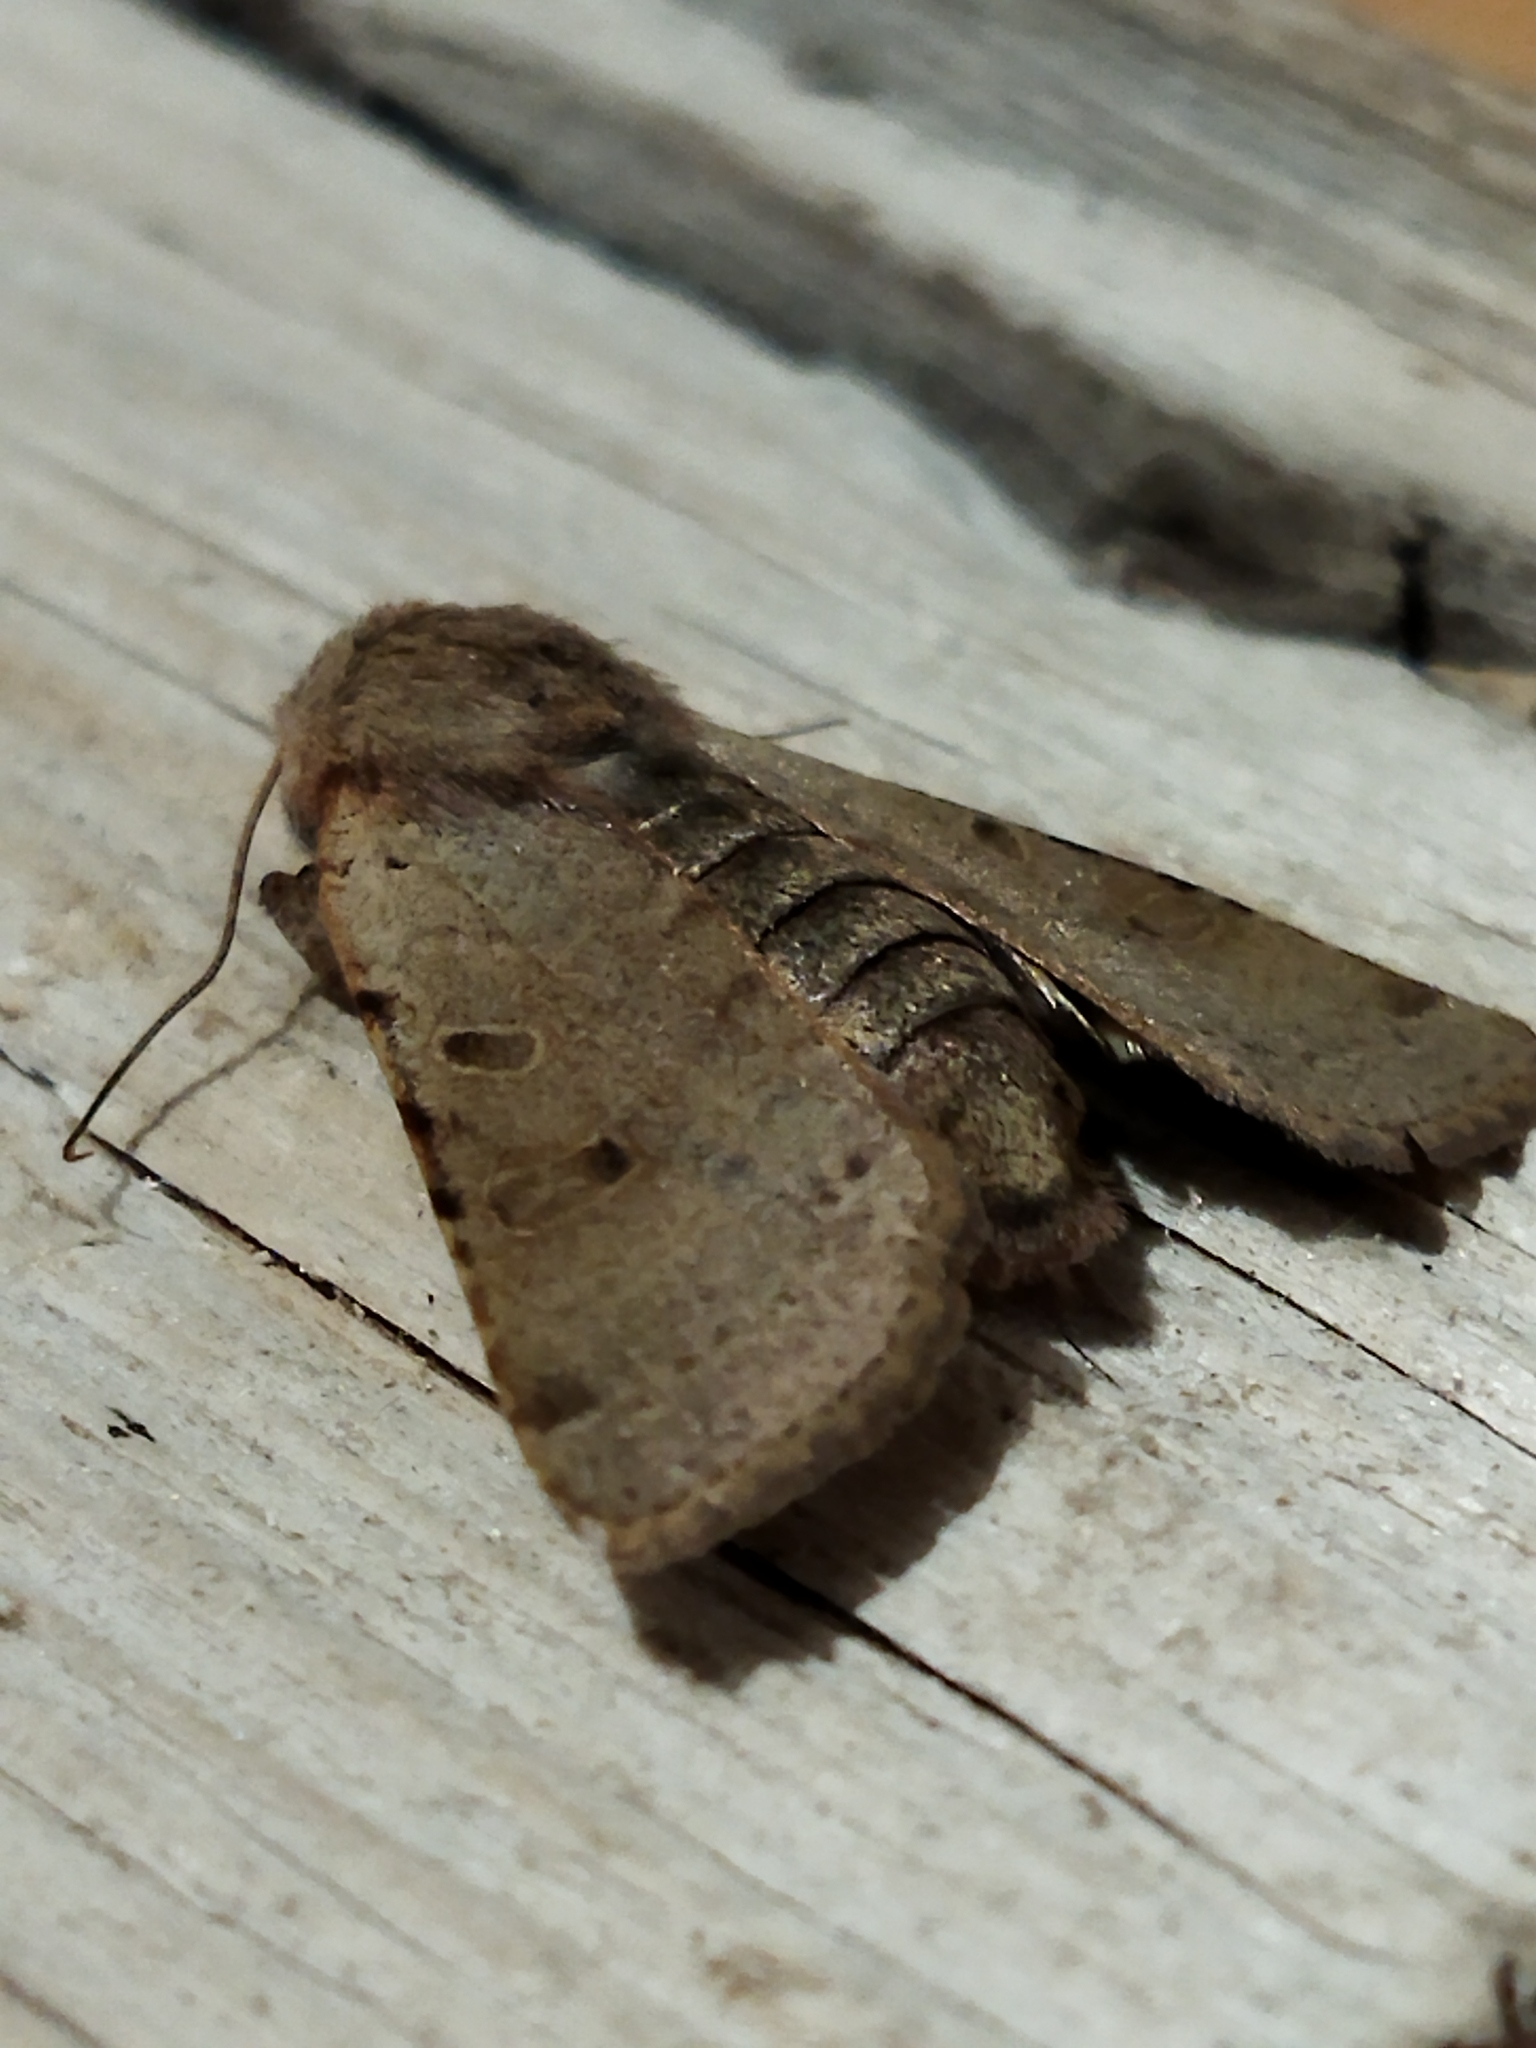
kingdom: Animalia
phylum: Arthropoda
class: Insecta
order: Lepidoptera
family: Noctuidae
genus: Agrochola
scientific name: Agrochola lychnidis
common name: Beaded chestnut
